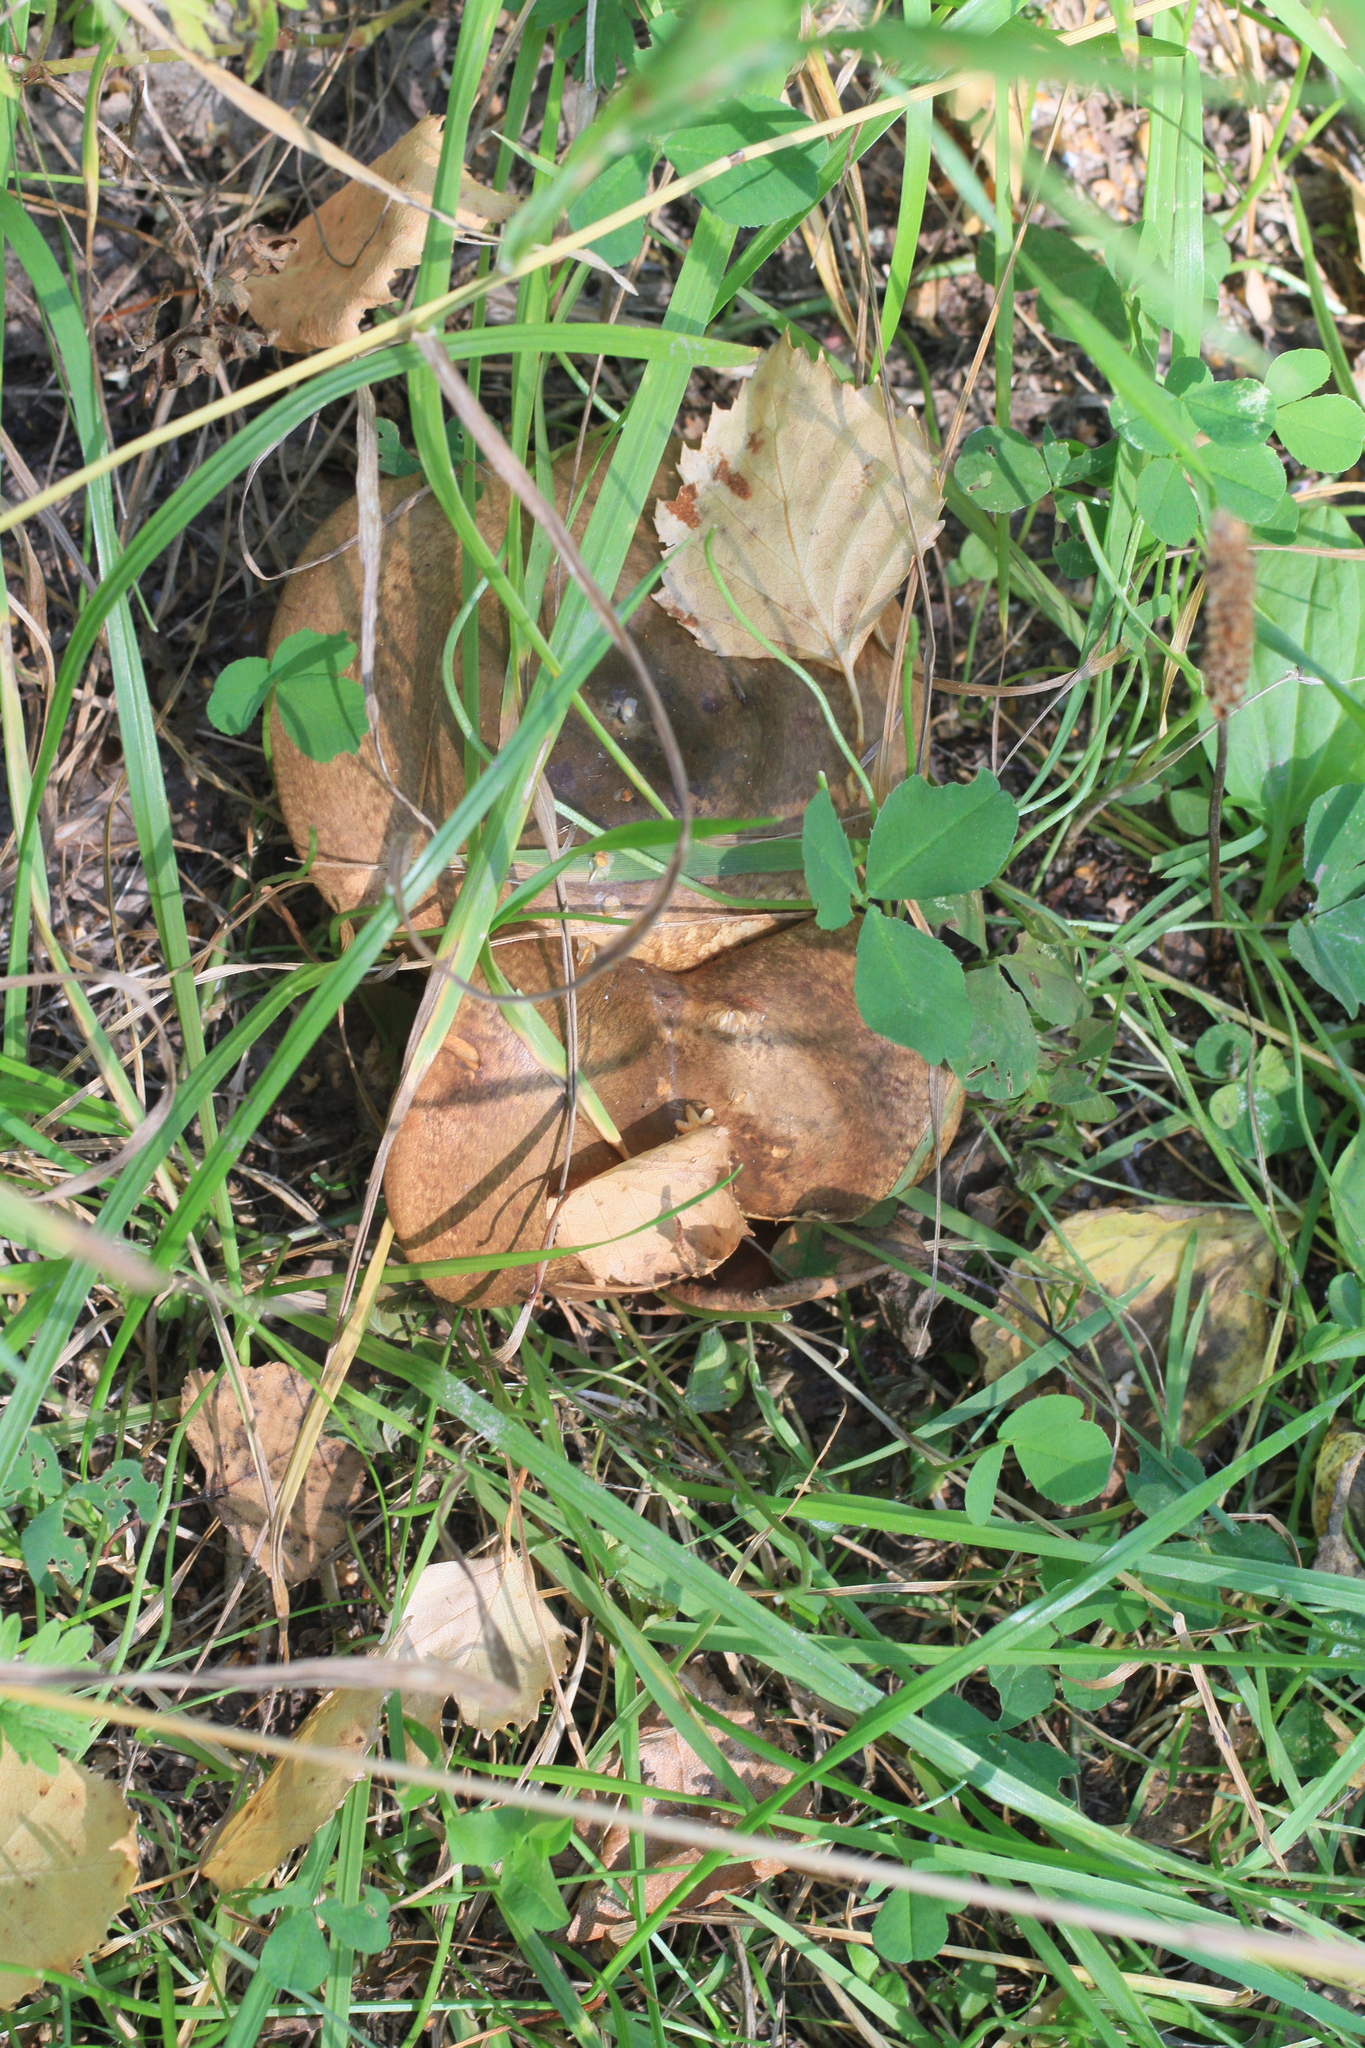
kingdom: Fungi
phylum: Basidiomycota
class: Agaricomycetes
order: Boletales
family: Paxillaceae
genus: Paxillus
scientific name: Paxillus involutus
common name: Brown roll rim
